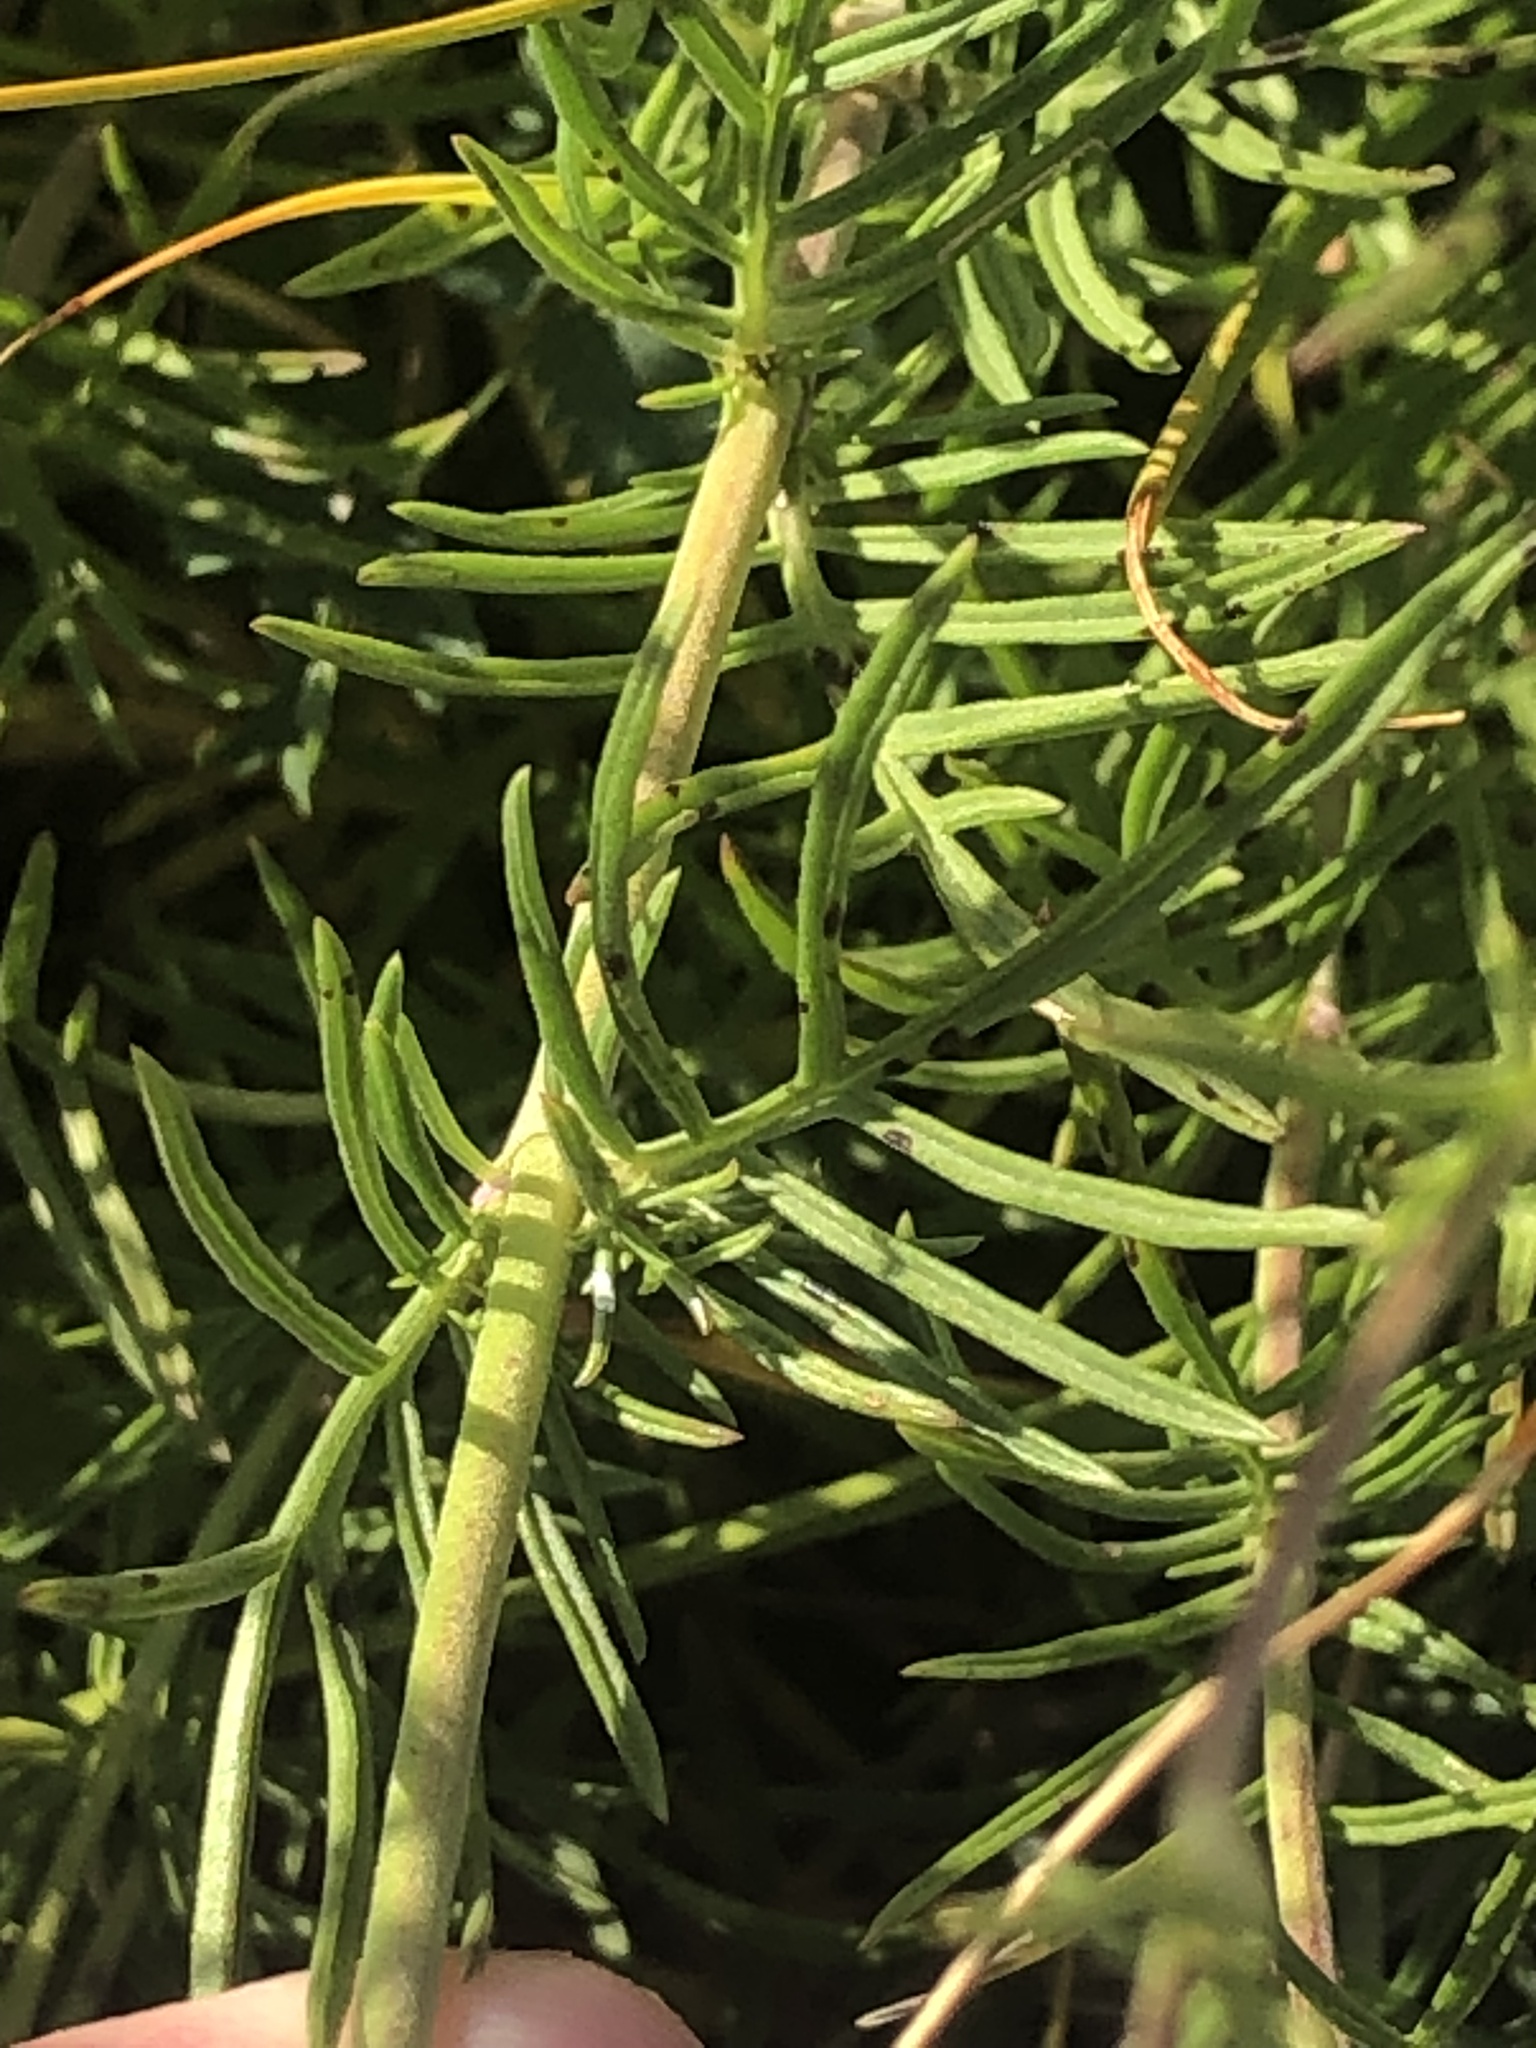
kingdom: Plantae
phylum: Tracheophyta
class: Magnoliopsida
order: Dipsacales
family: Caprifoliaceae
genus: Scabiosa
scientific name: Scabiosa canescens
